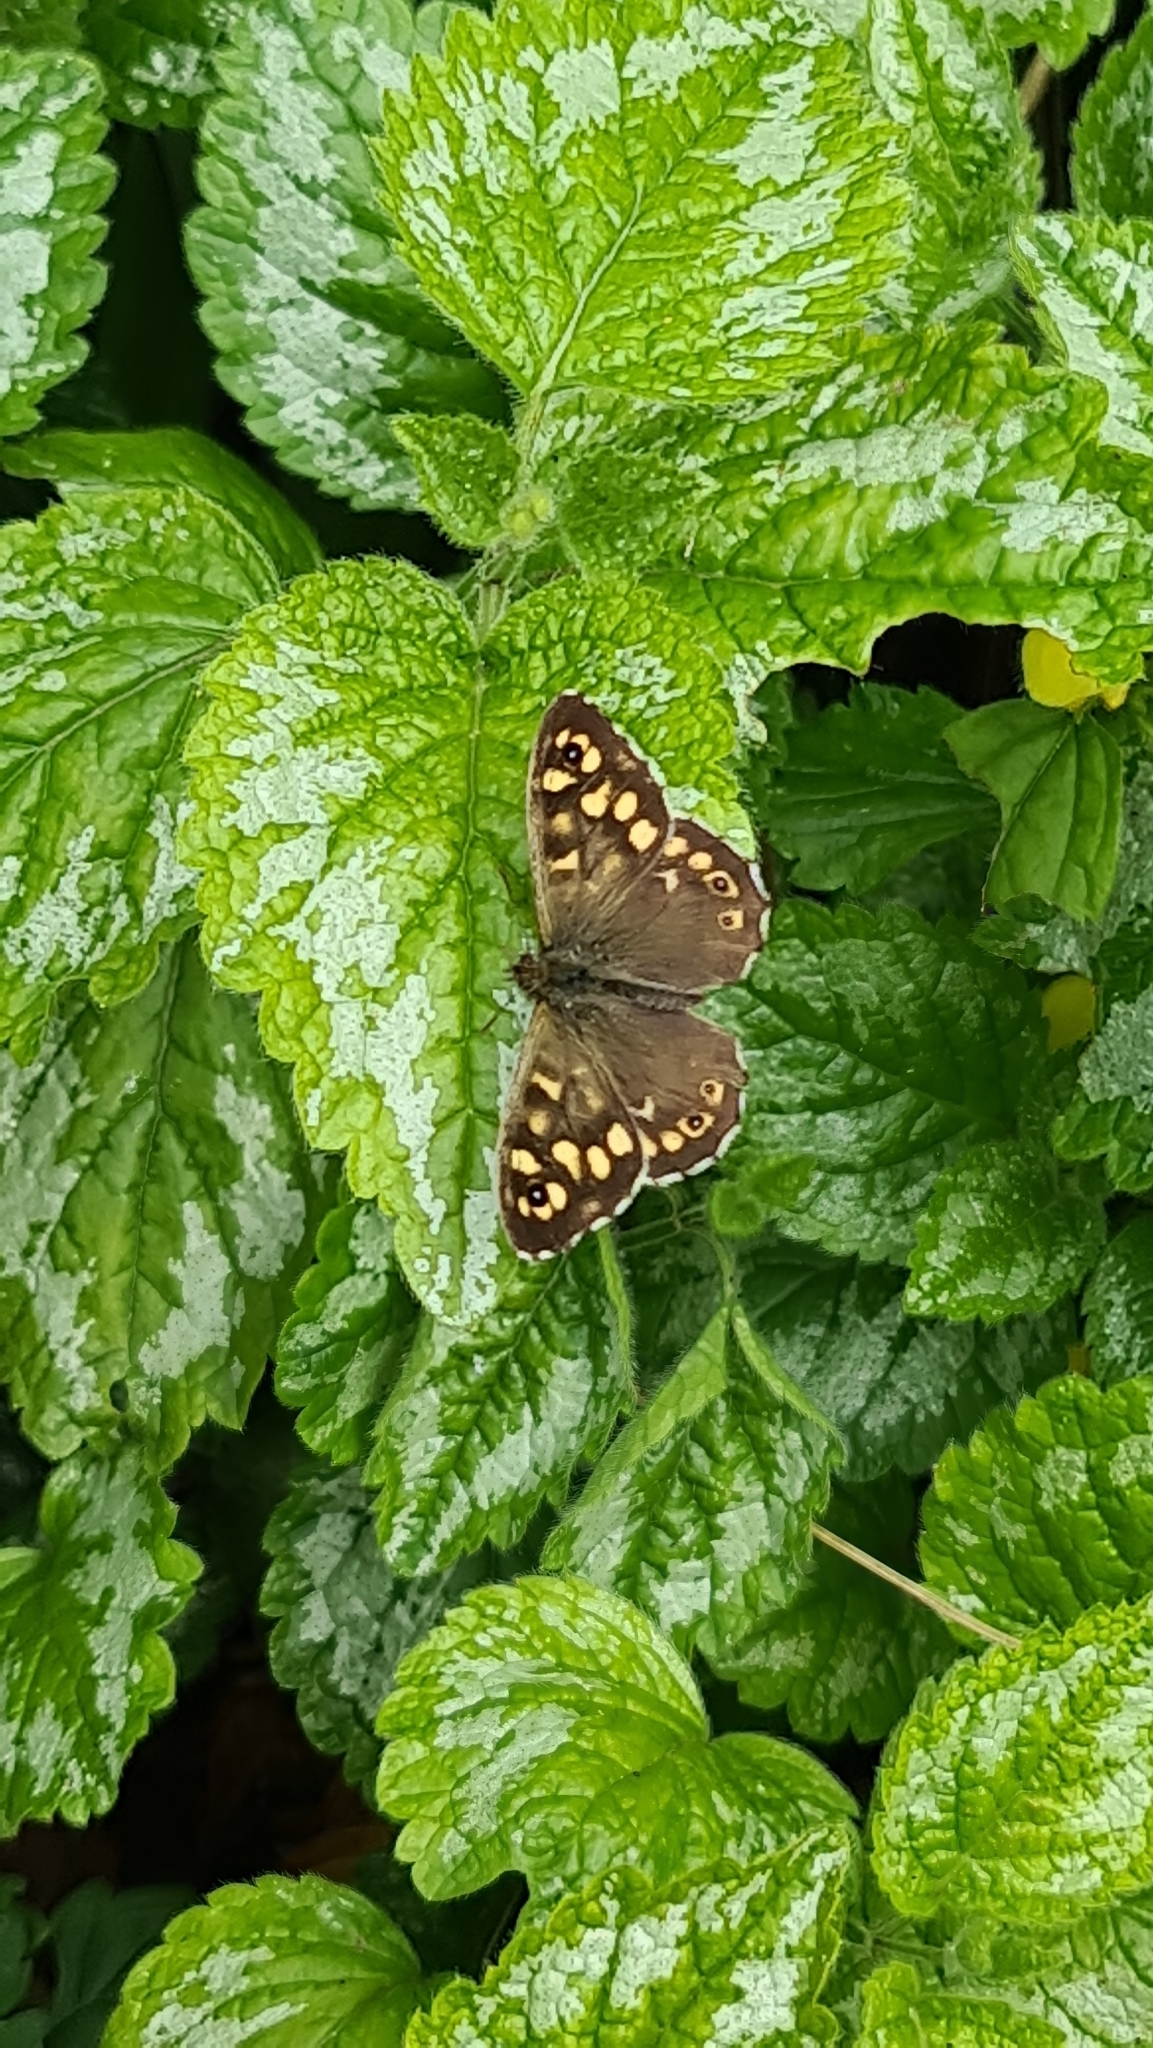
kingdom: Animalia
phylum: Arthropoda
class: Insecta
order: Lepidoptera
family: Nymphalidae
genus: Pararge
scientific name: Pararge aegeria
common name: Speckled wood
